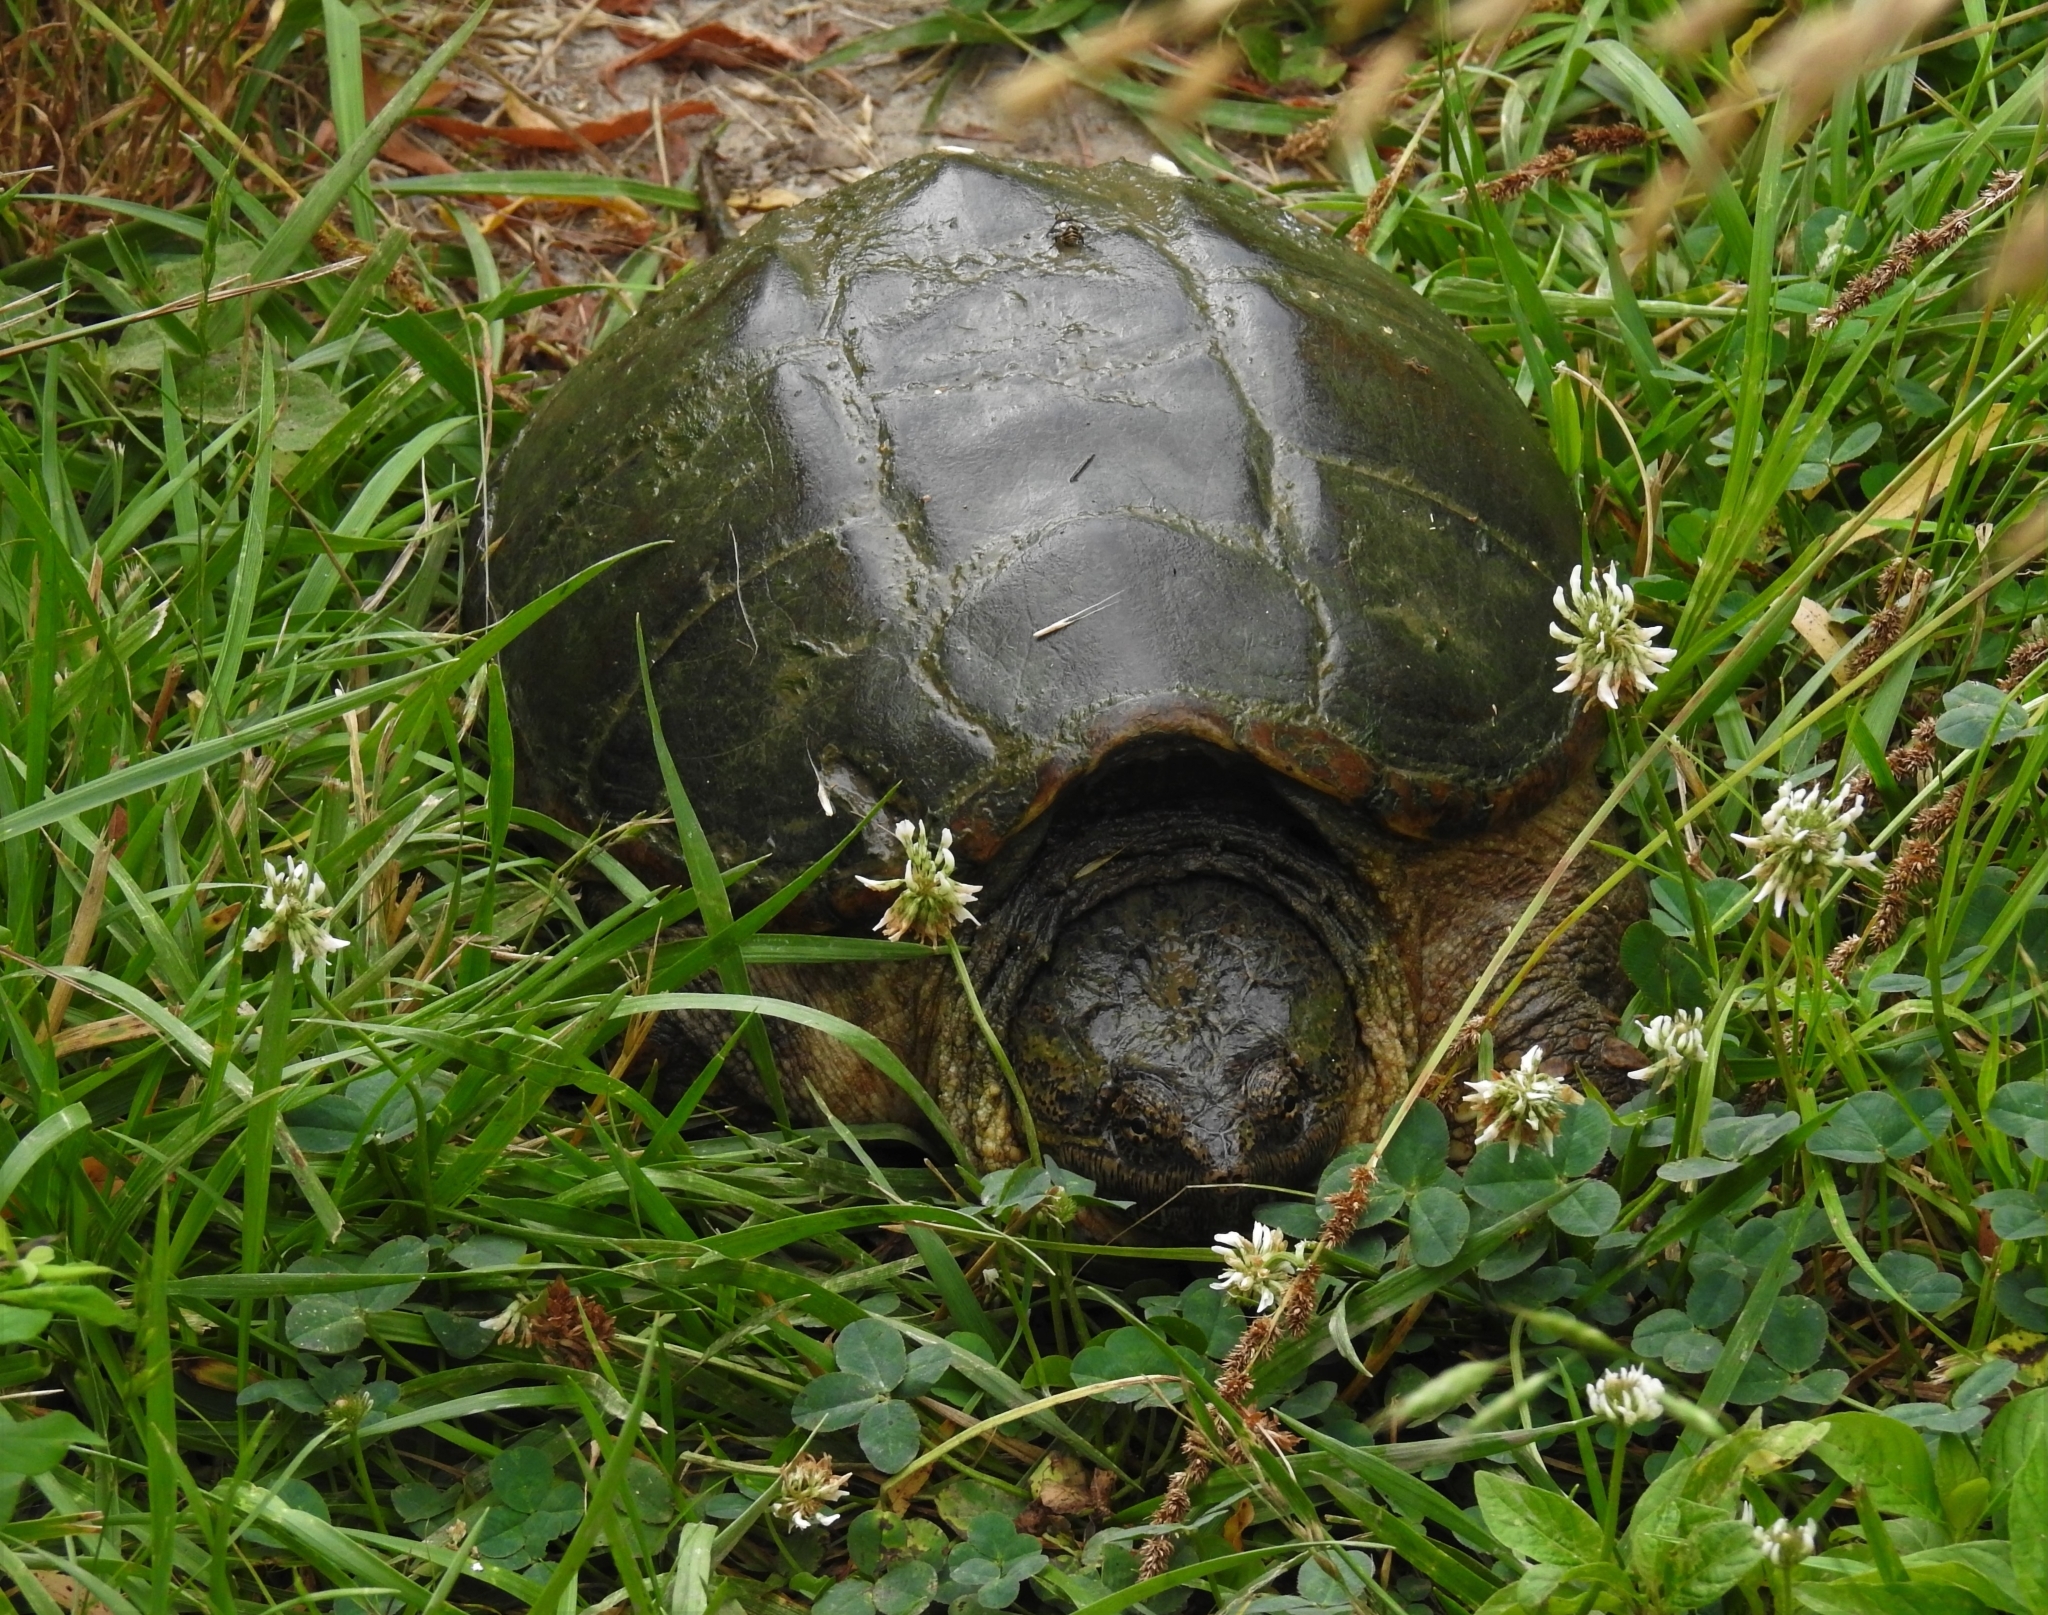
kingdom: Animalia
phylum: Chordata
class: Testudines
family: Chelydridae
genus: Chelydra
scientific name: Chelydra serpentina
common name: Common snapping turtle
